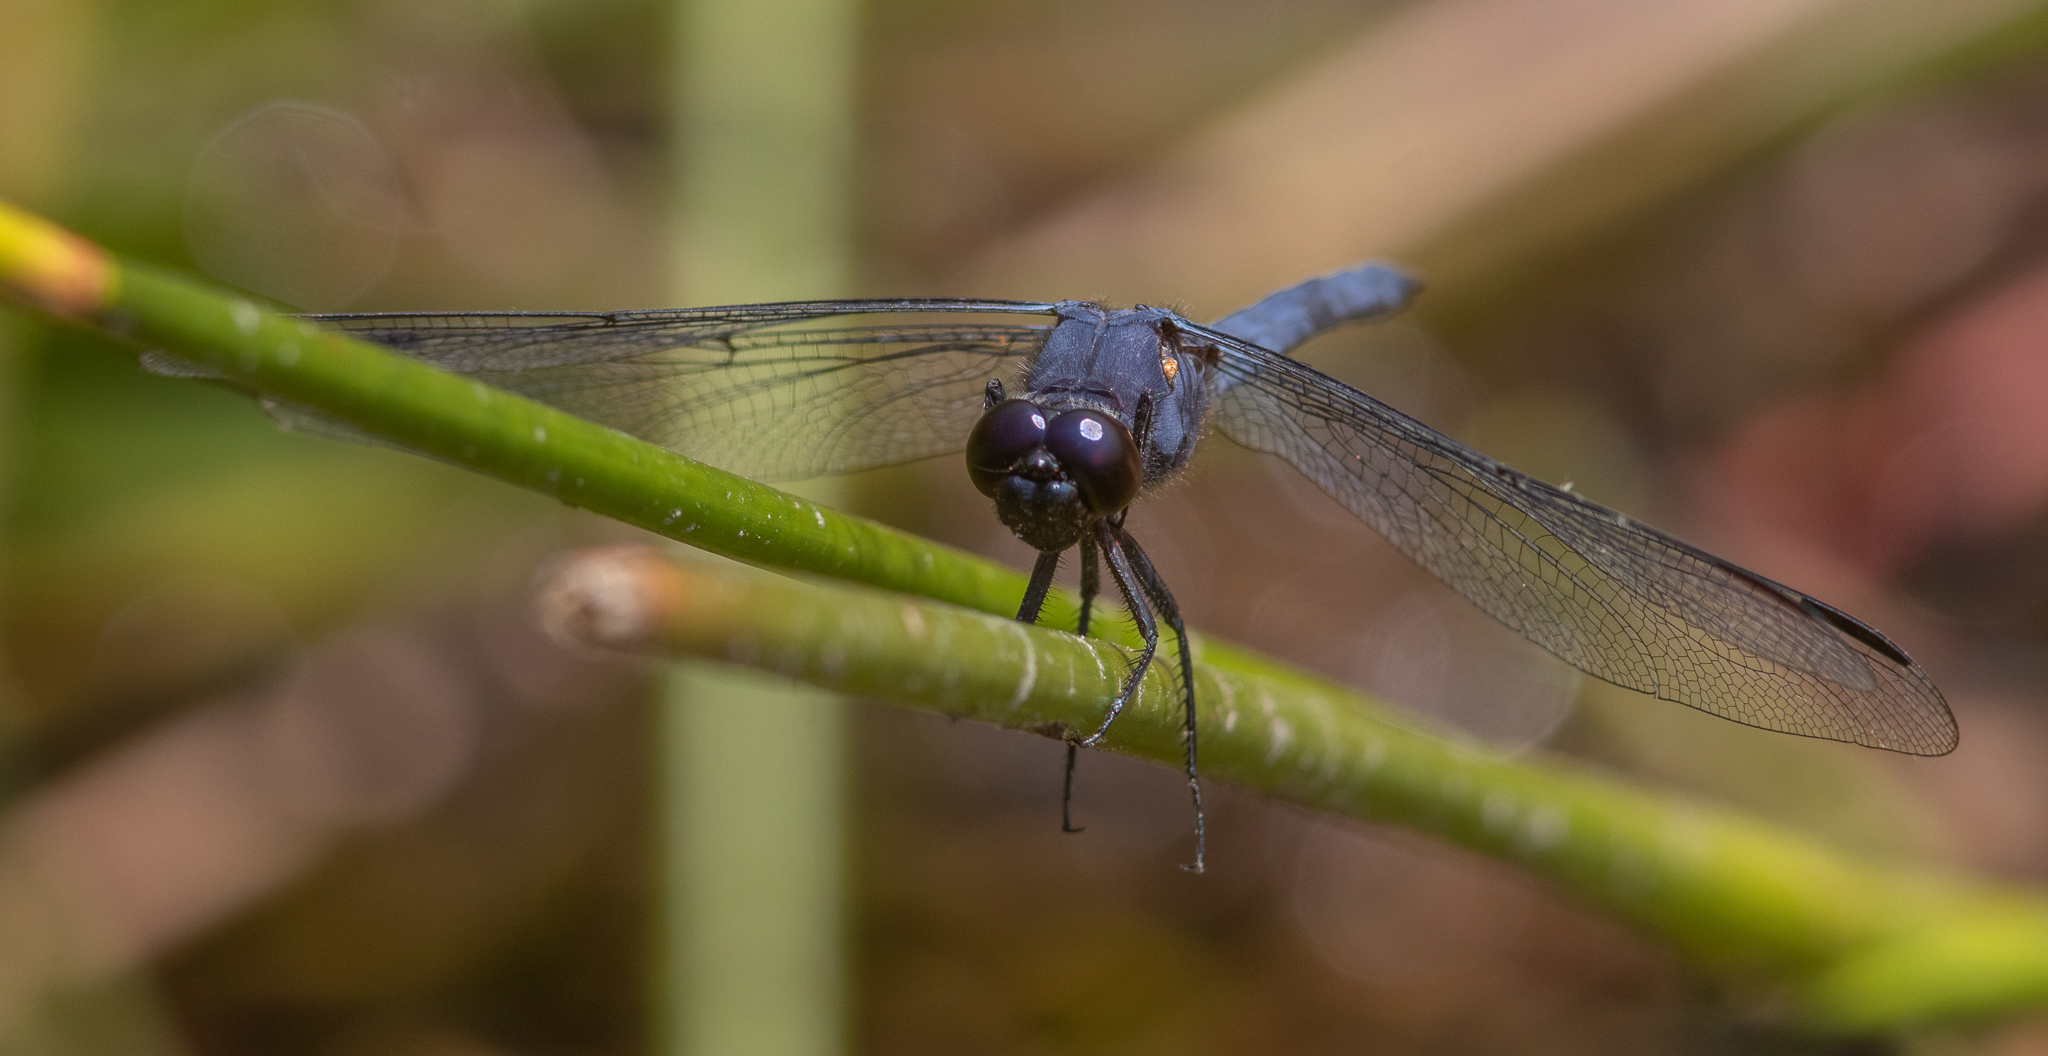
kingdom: Animalia
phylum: Arthropoda
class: Insecta
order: Odonata
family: Libellulidae
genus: Libellula
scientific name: Libellula incesta
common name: Slaty skimmer
